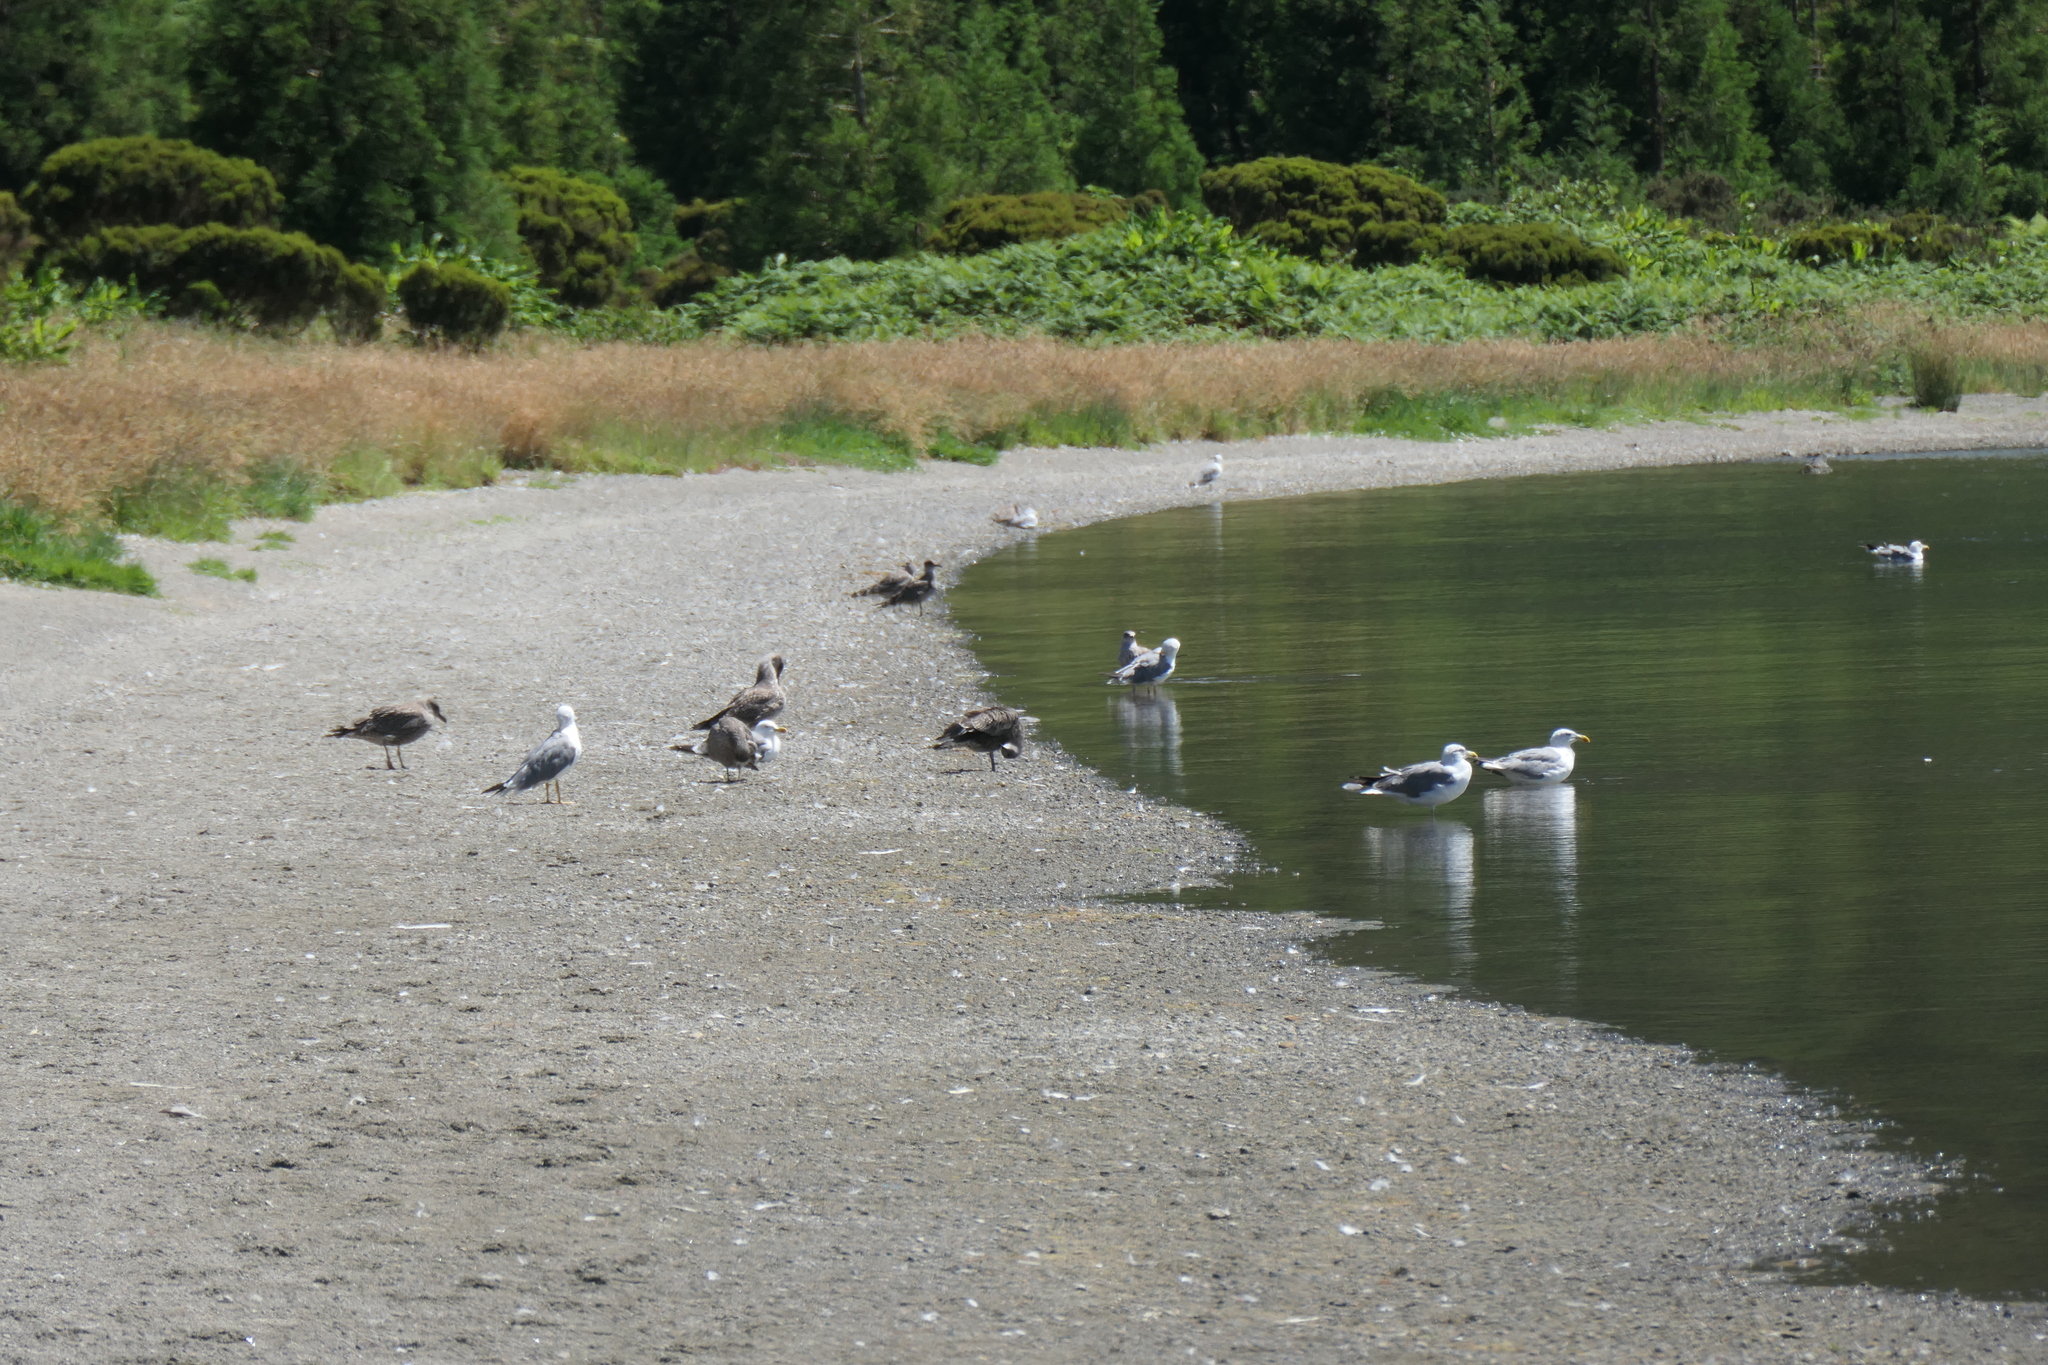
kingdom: Animalia
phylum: Chordata
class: Aves
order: Charadriiformes
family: Laridae
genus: Larus
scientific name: Larus michahellis
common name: Yellow-legged gull
